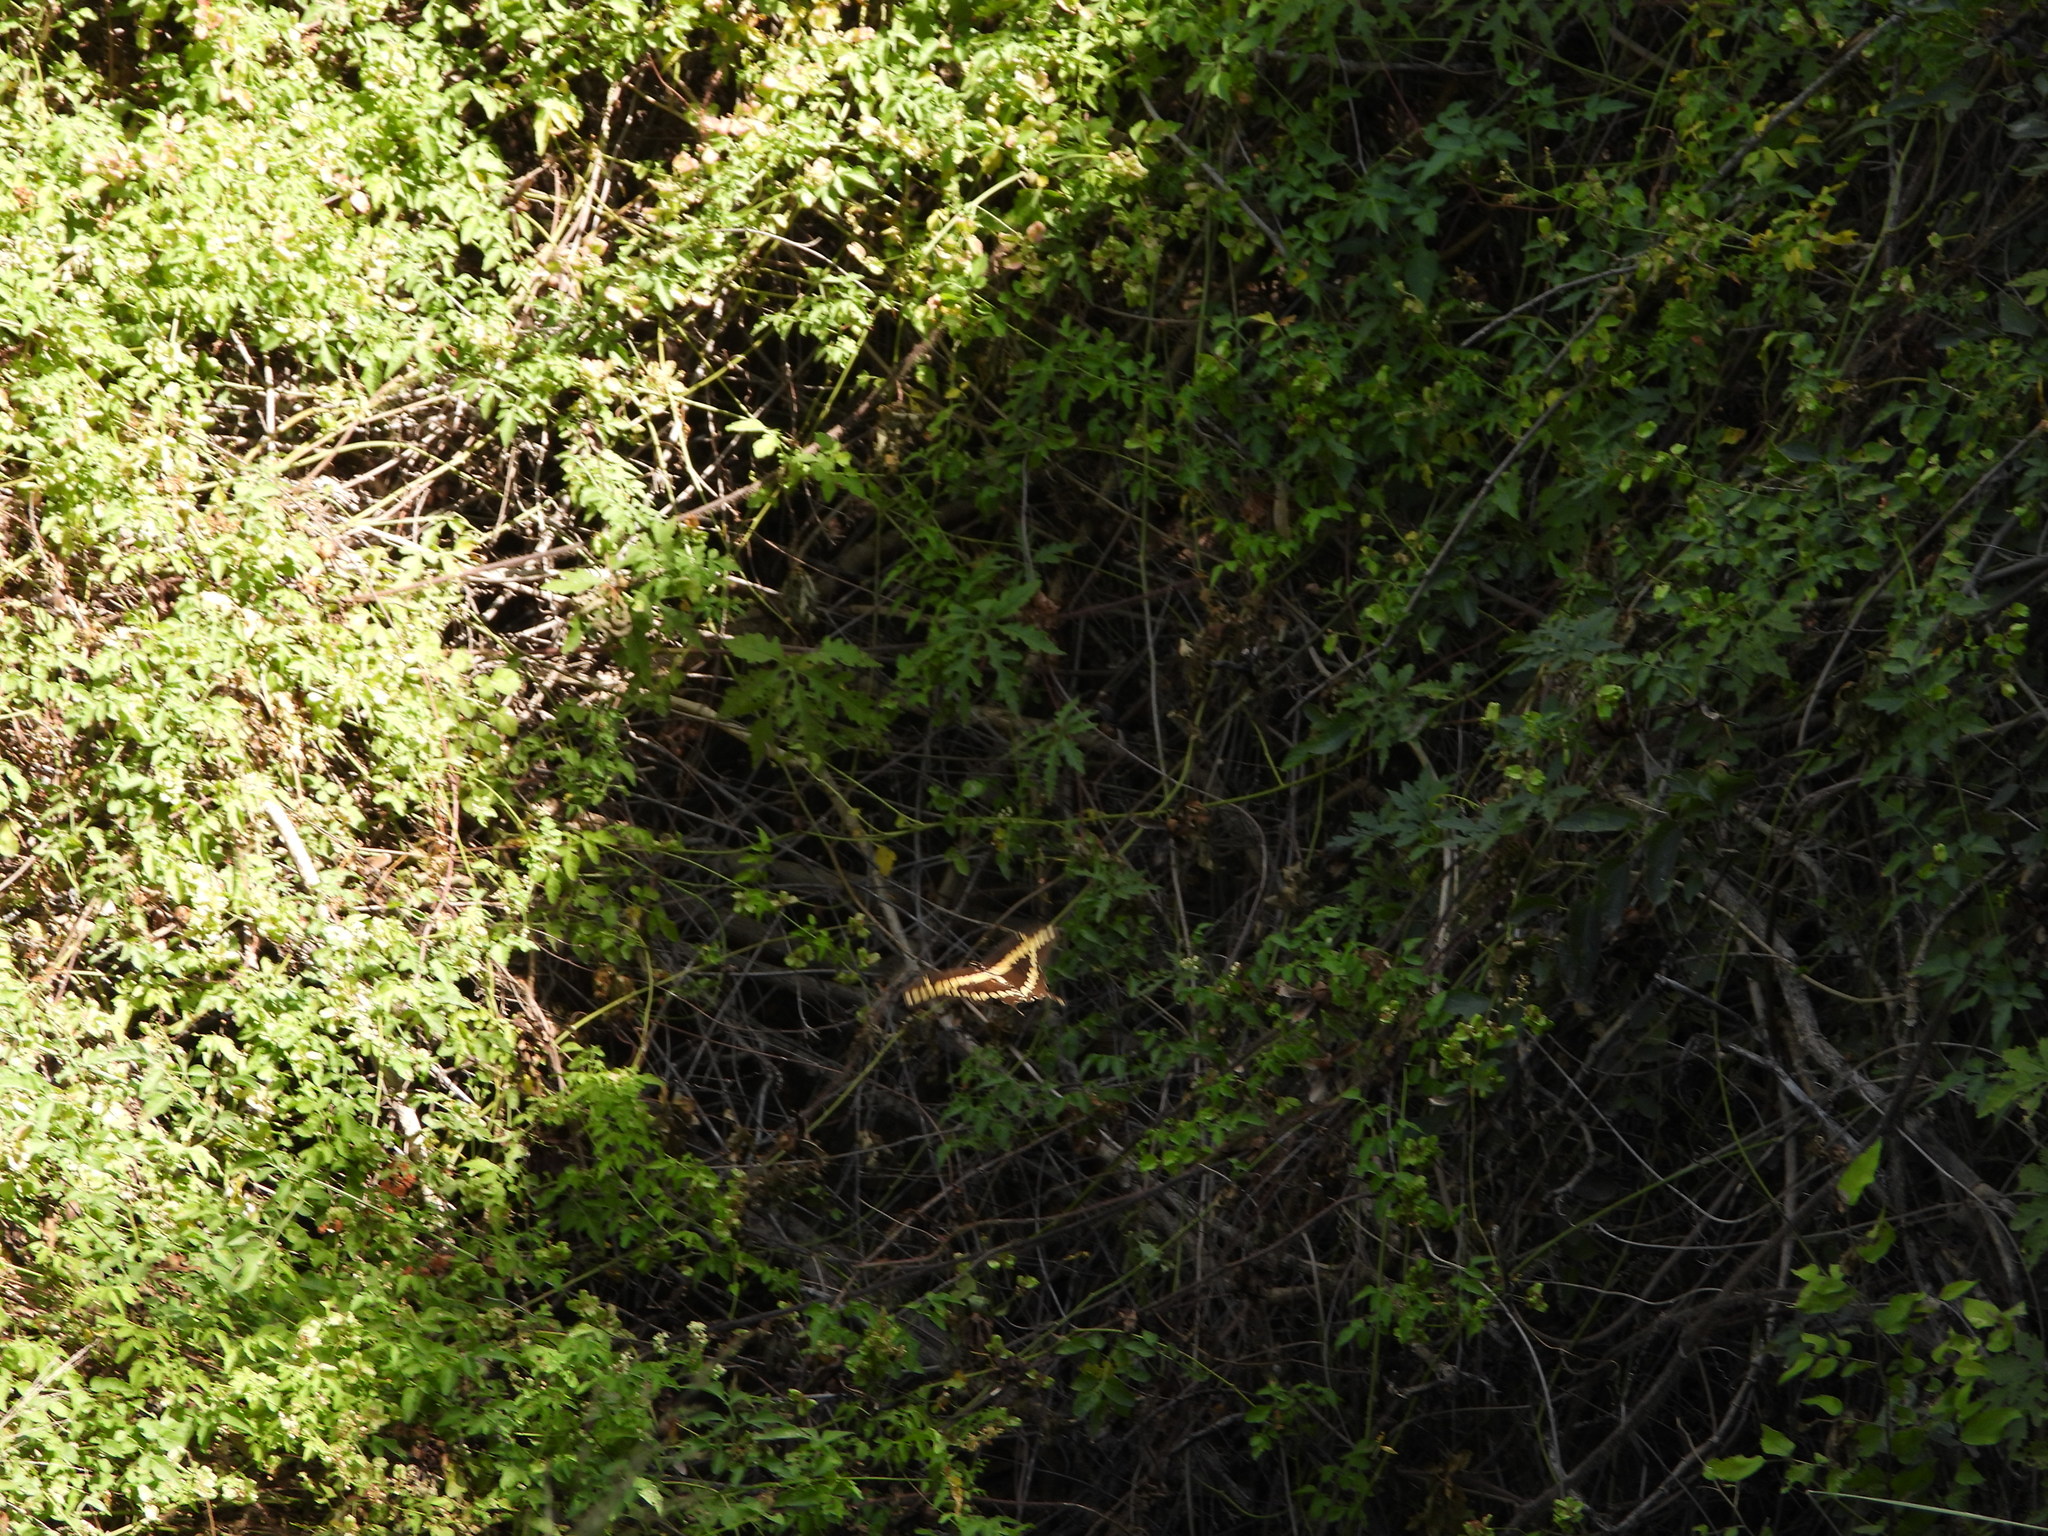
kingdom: Animalia
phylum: Arthropoda
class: Insecta
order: Lepidoptera
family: Papilionidae
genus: Papilio
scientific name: Papilio rumiko
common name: Western giant swallowtail
